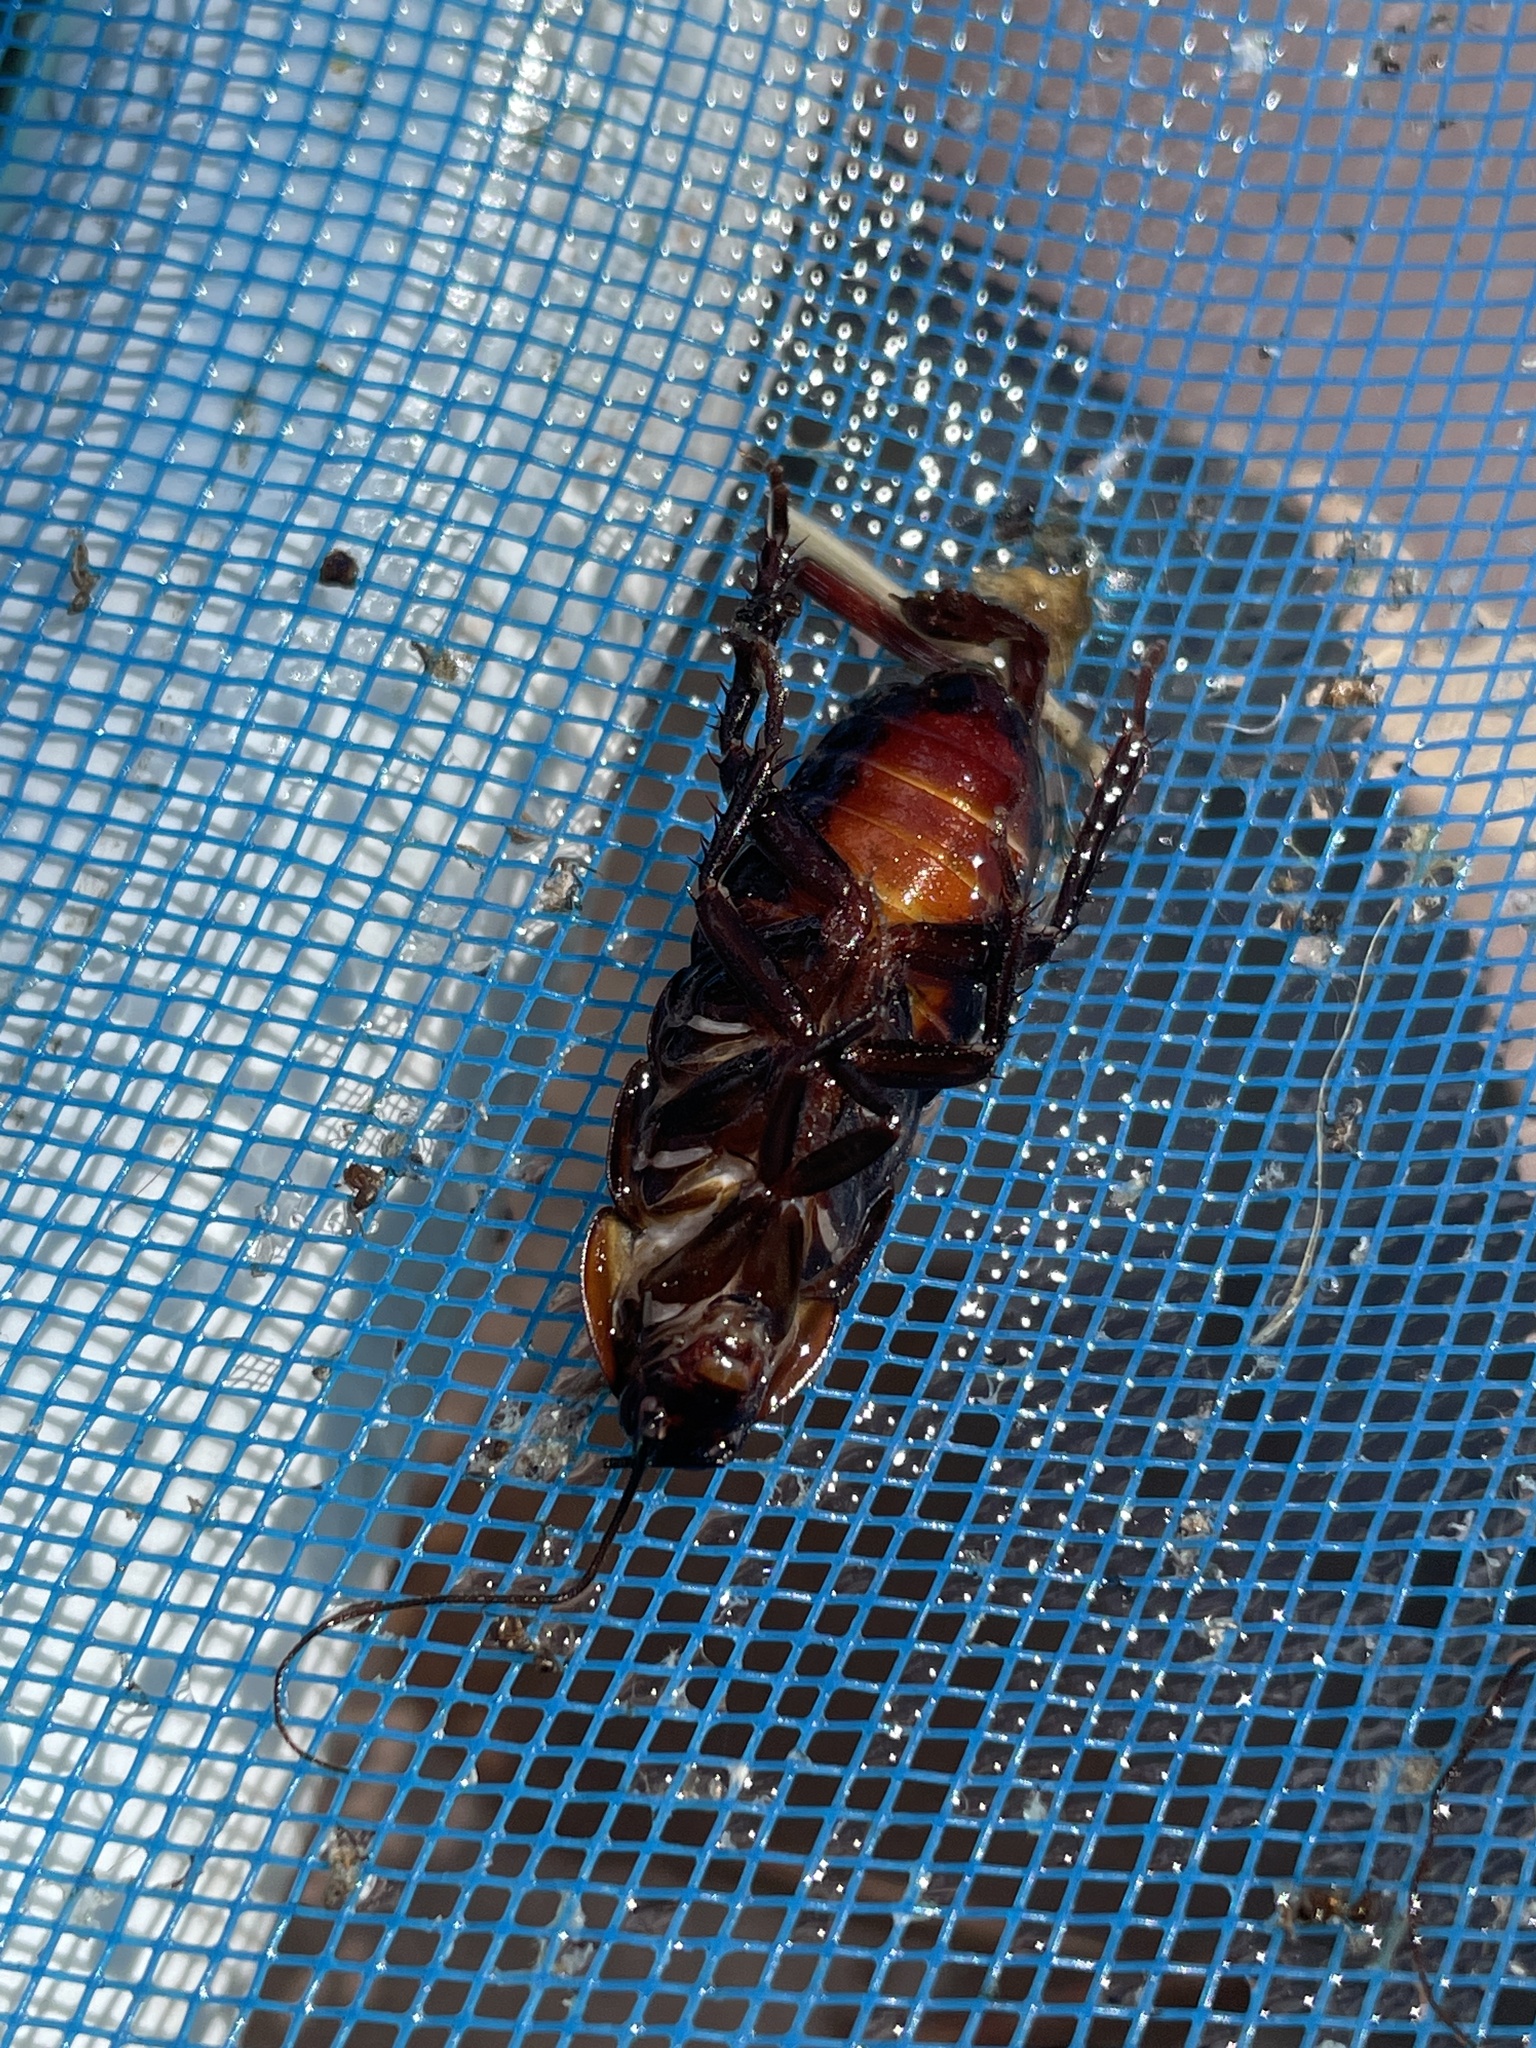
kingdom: Animalia
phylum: Arthropoda
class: Insecta
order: Blattodea
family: Blattidae
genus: Blatta
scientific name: Blatta orientalis
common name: Oriental cockroach
